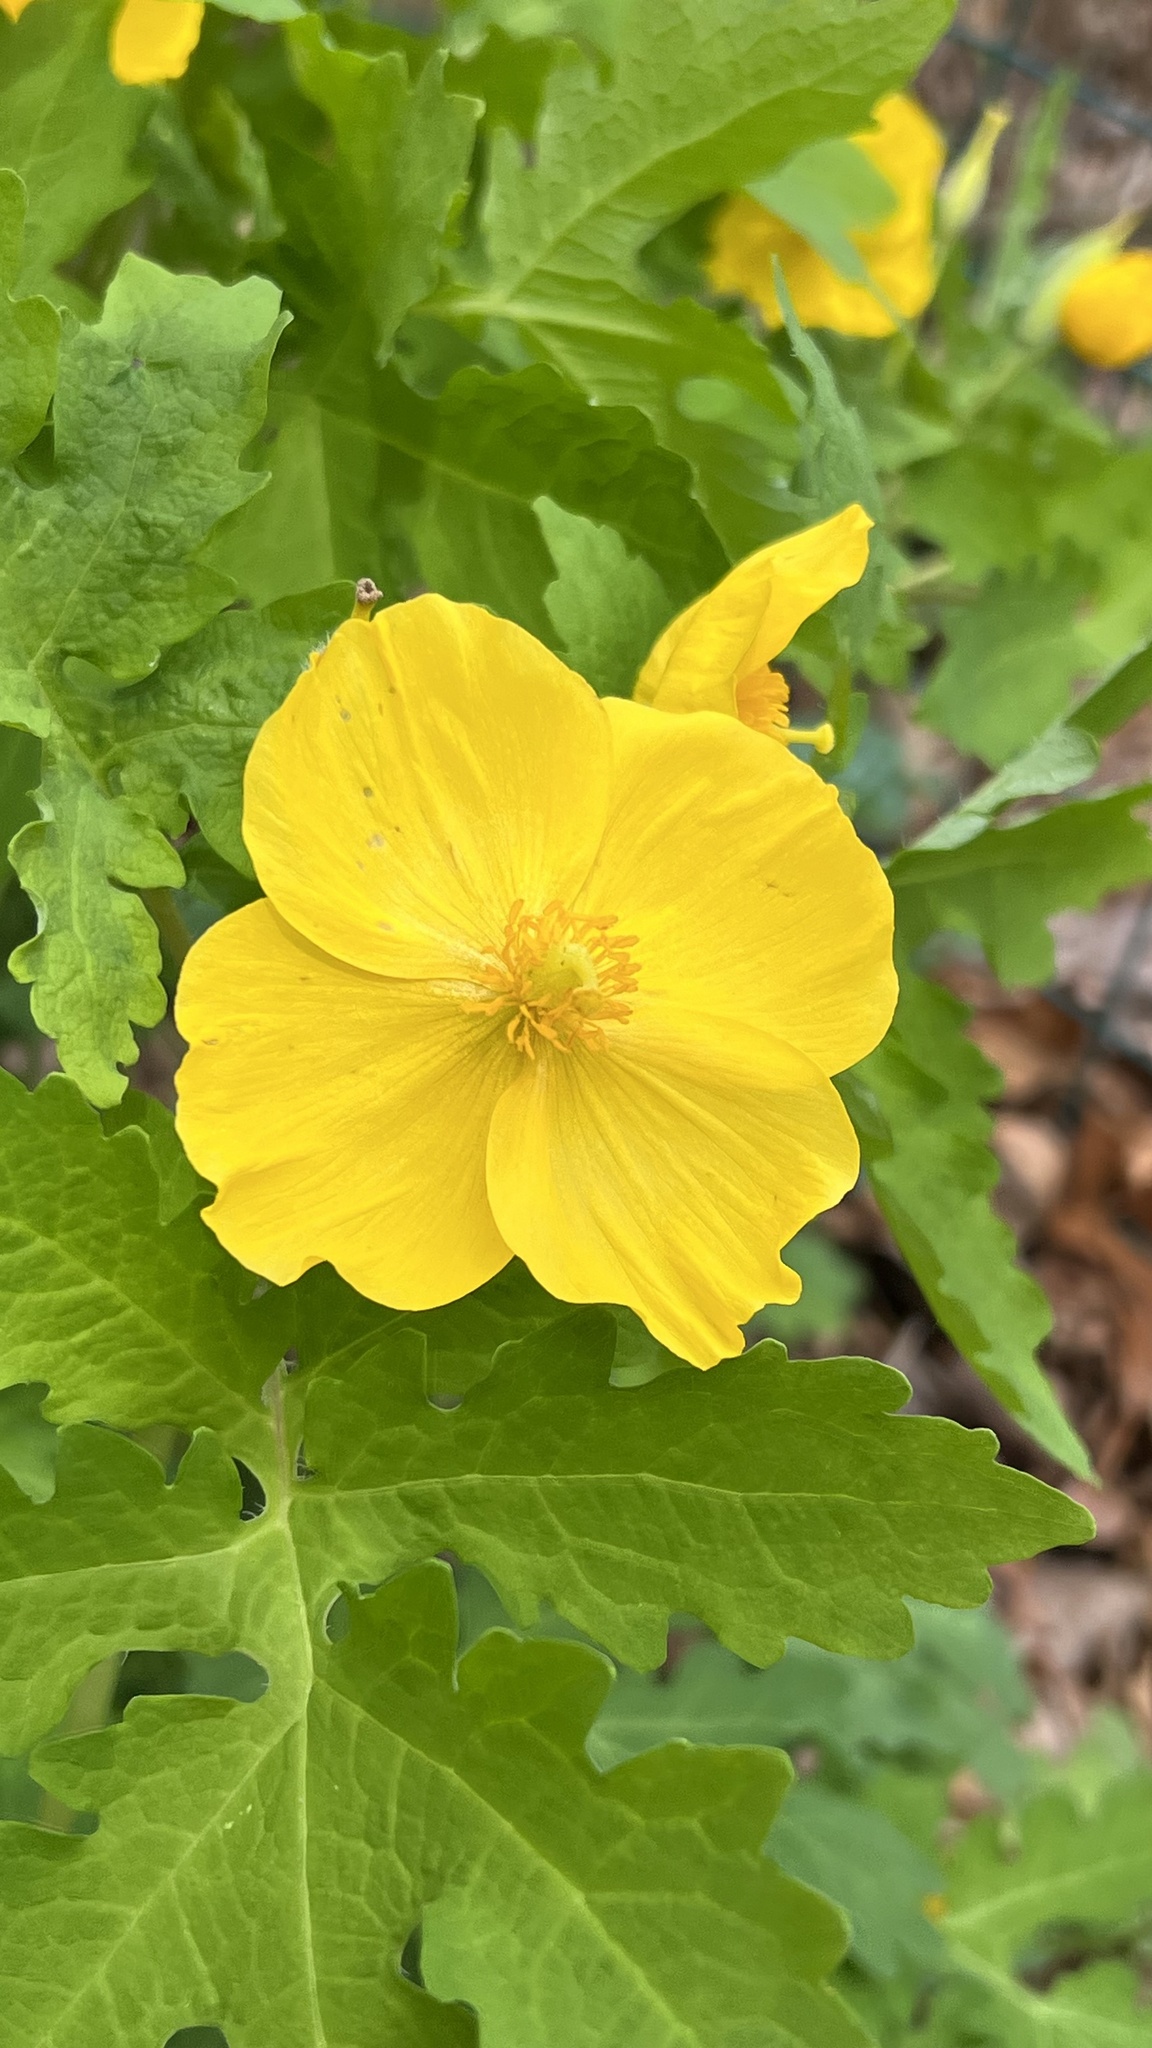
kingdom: Plantae
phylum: Tracheophyta
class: Magnoliopsida
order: Ranunculales
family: Papaveraceae
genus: Stylophorum
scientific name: Stylophorum diphyllum
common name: Celandine poppy
